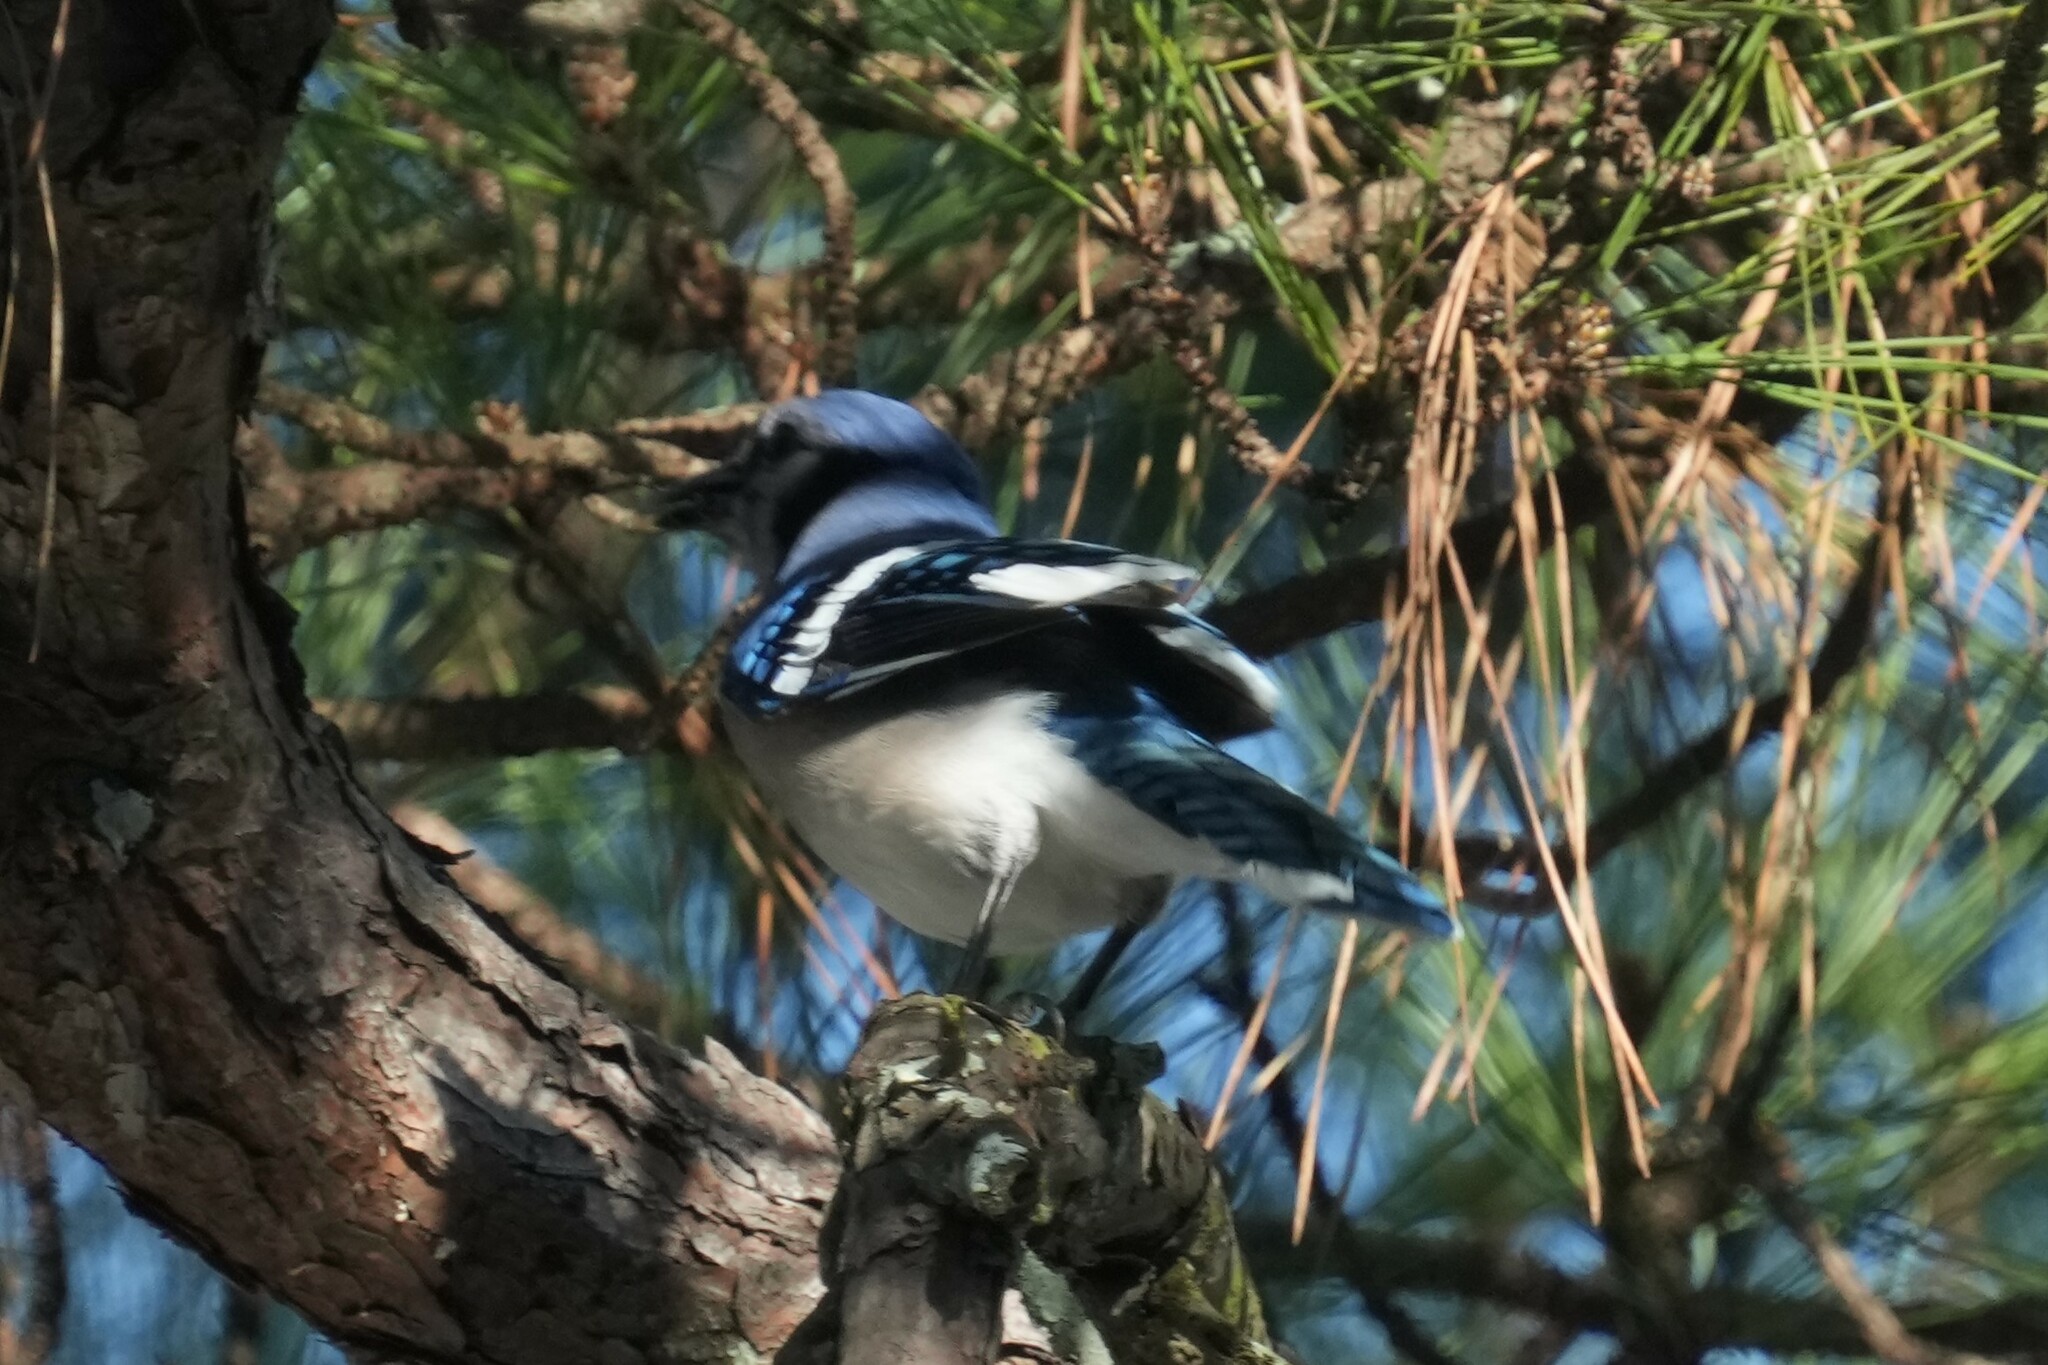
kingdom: Animalia
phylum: Chordata
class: Aves
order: Passeriformes
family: Corvidae
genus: Cyanocitta
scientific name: Cyanocitta cristata
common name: Blue jay
